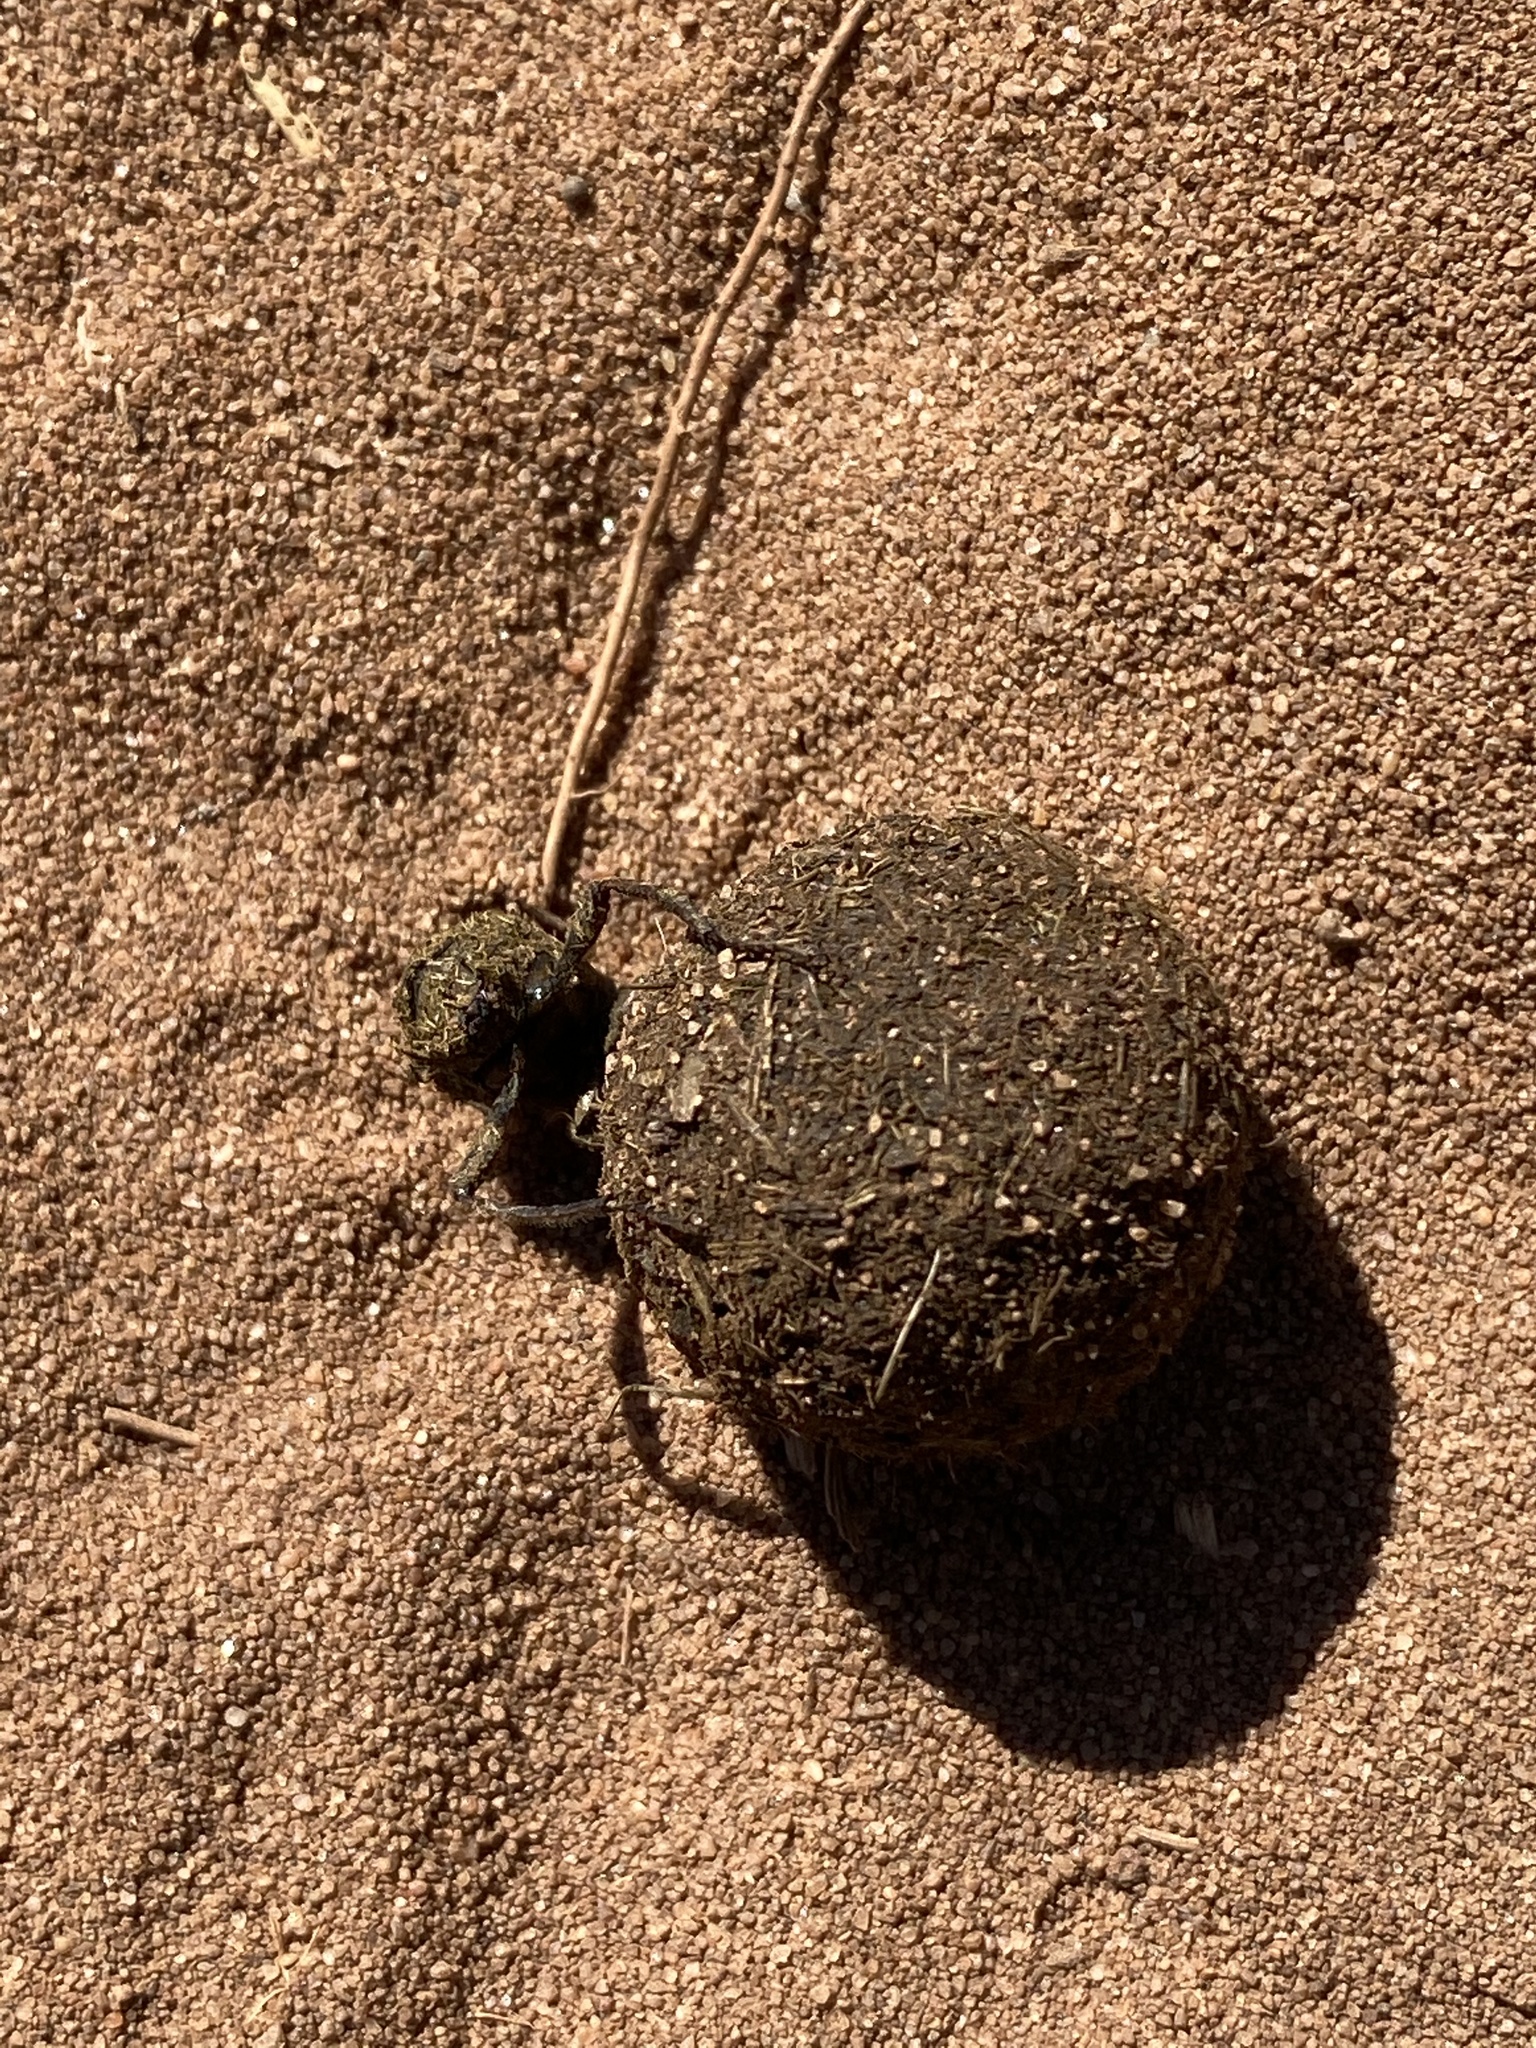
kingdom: Animalia
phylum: Arthropoda
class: Insecta
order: Coleoptera
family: Scarabaeidae
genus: Sisyphus
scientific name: Sisyphus
